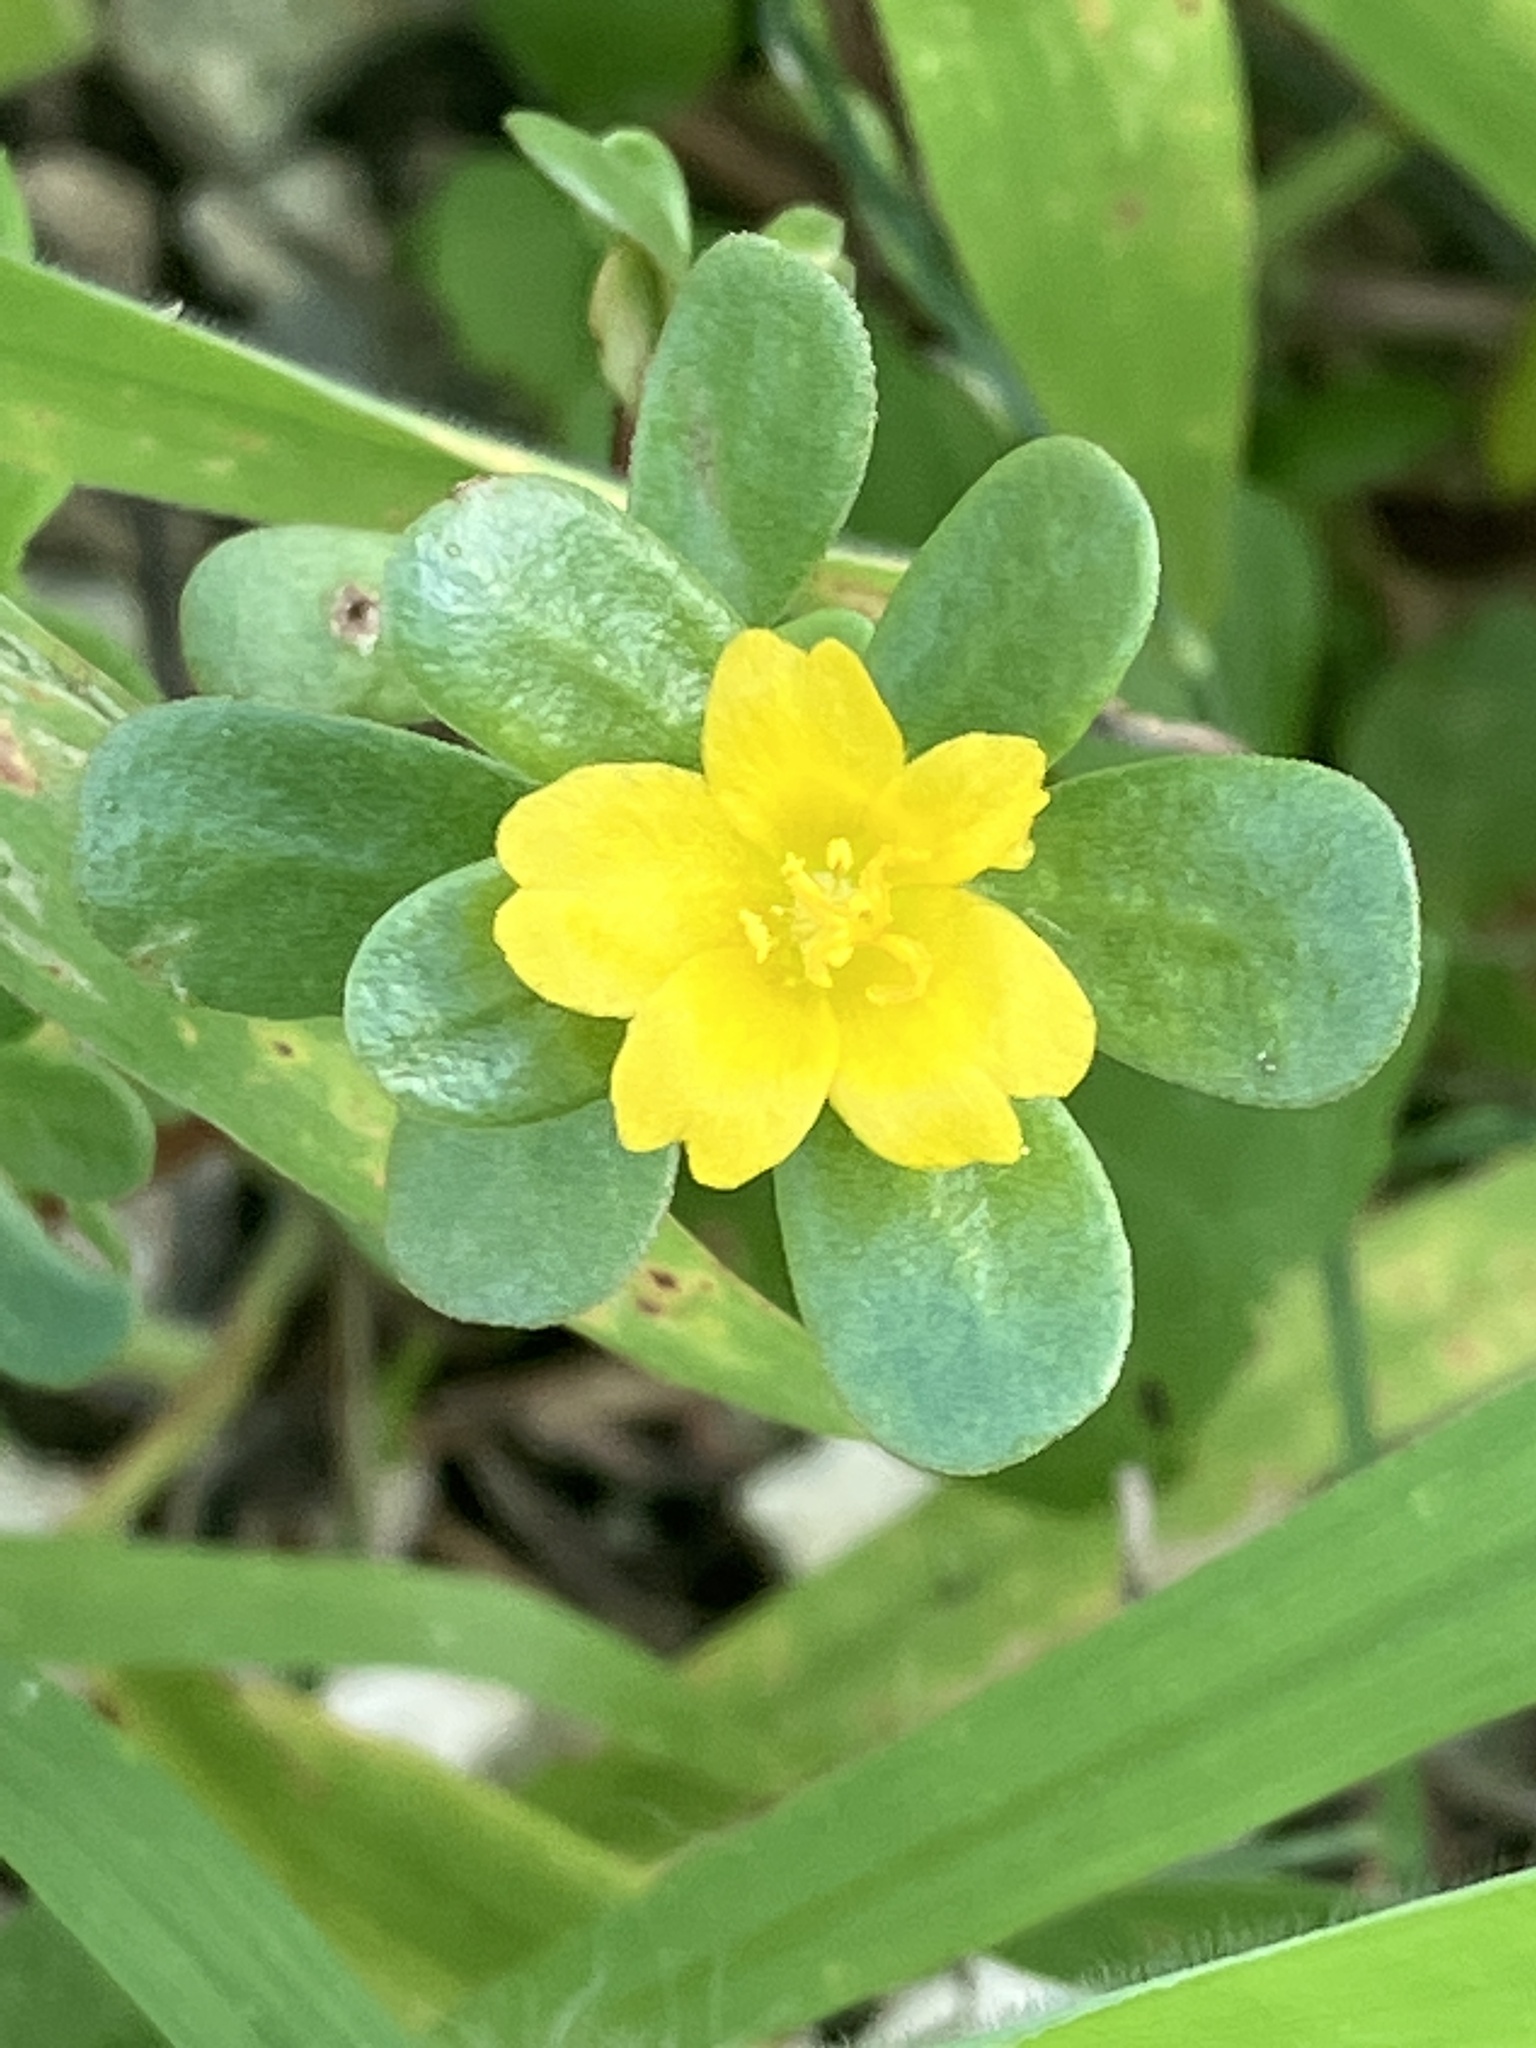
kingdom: Plantae
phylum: Tracheophyta
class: Magnoliopsida
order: Caryophyllales
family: Portulacaceae
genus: Portulaca
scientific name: Portulaca oleracea
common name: Common purslane
